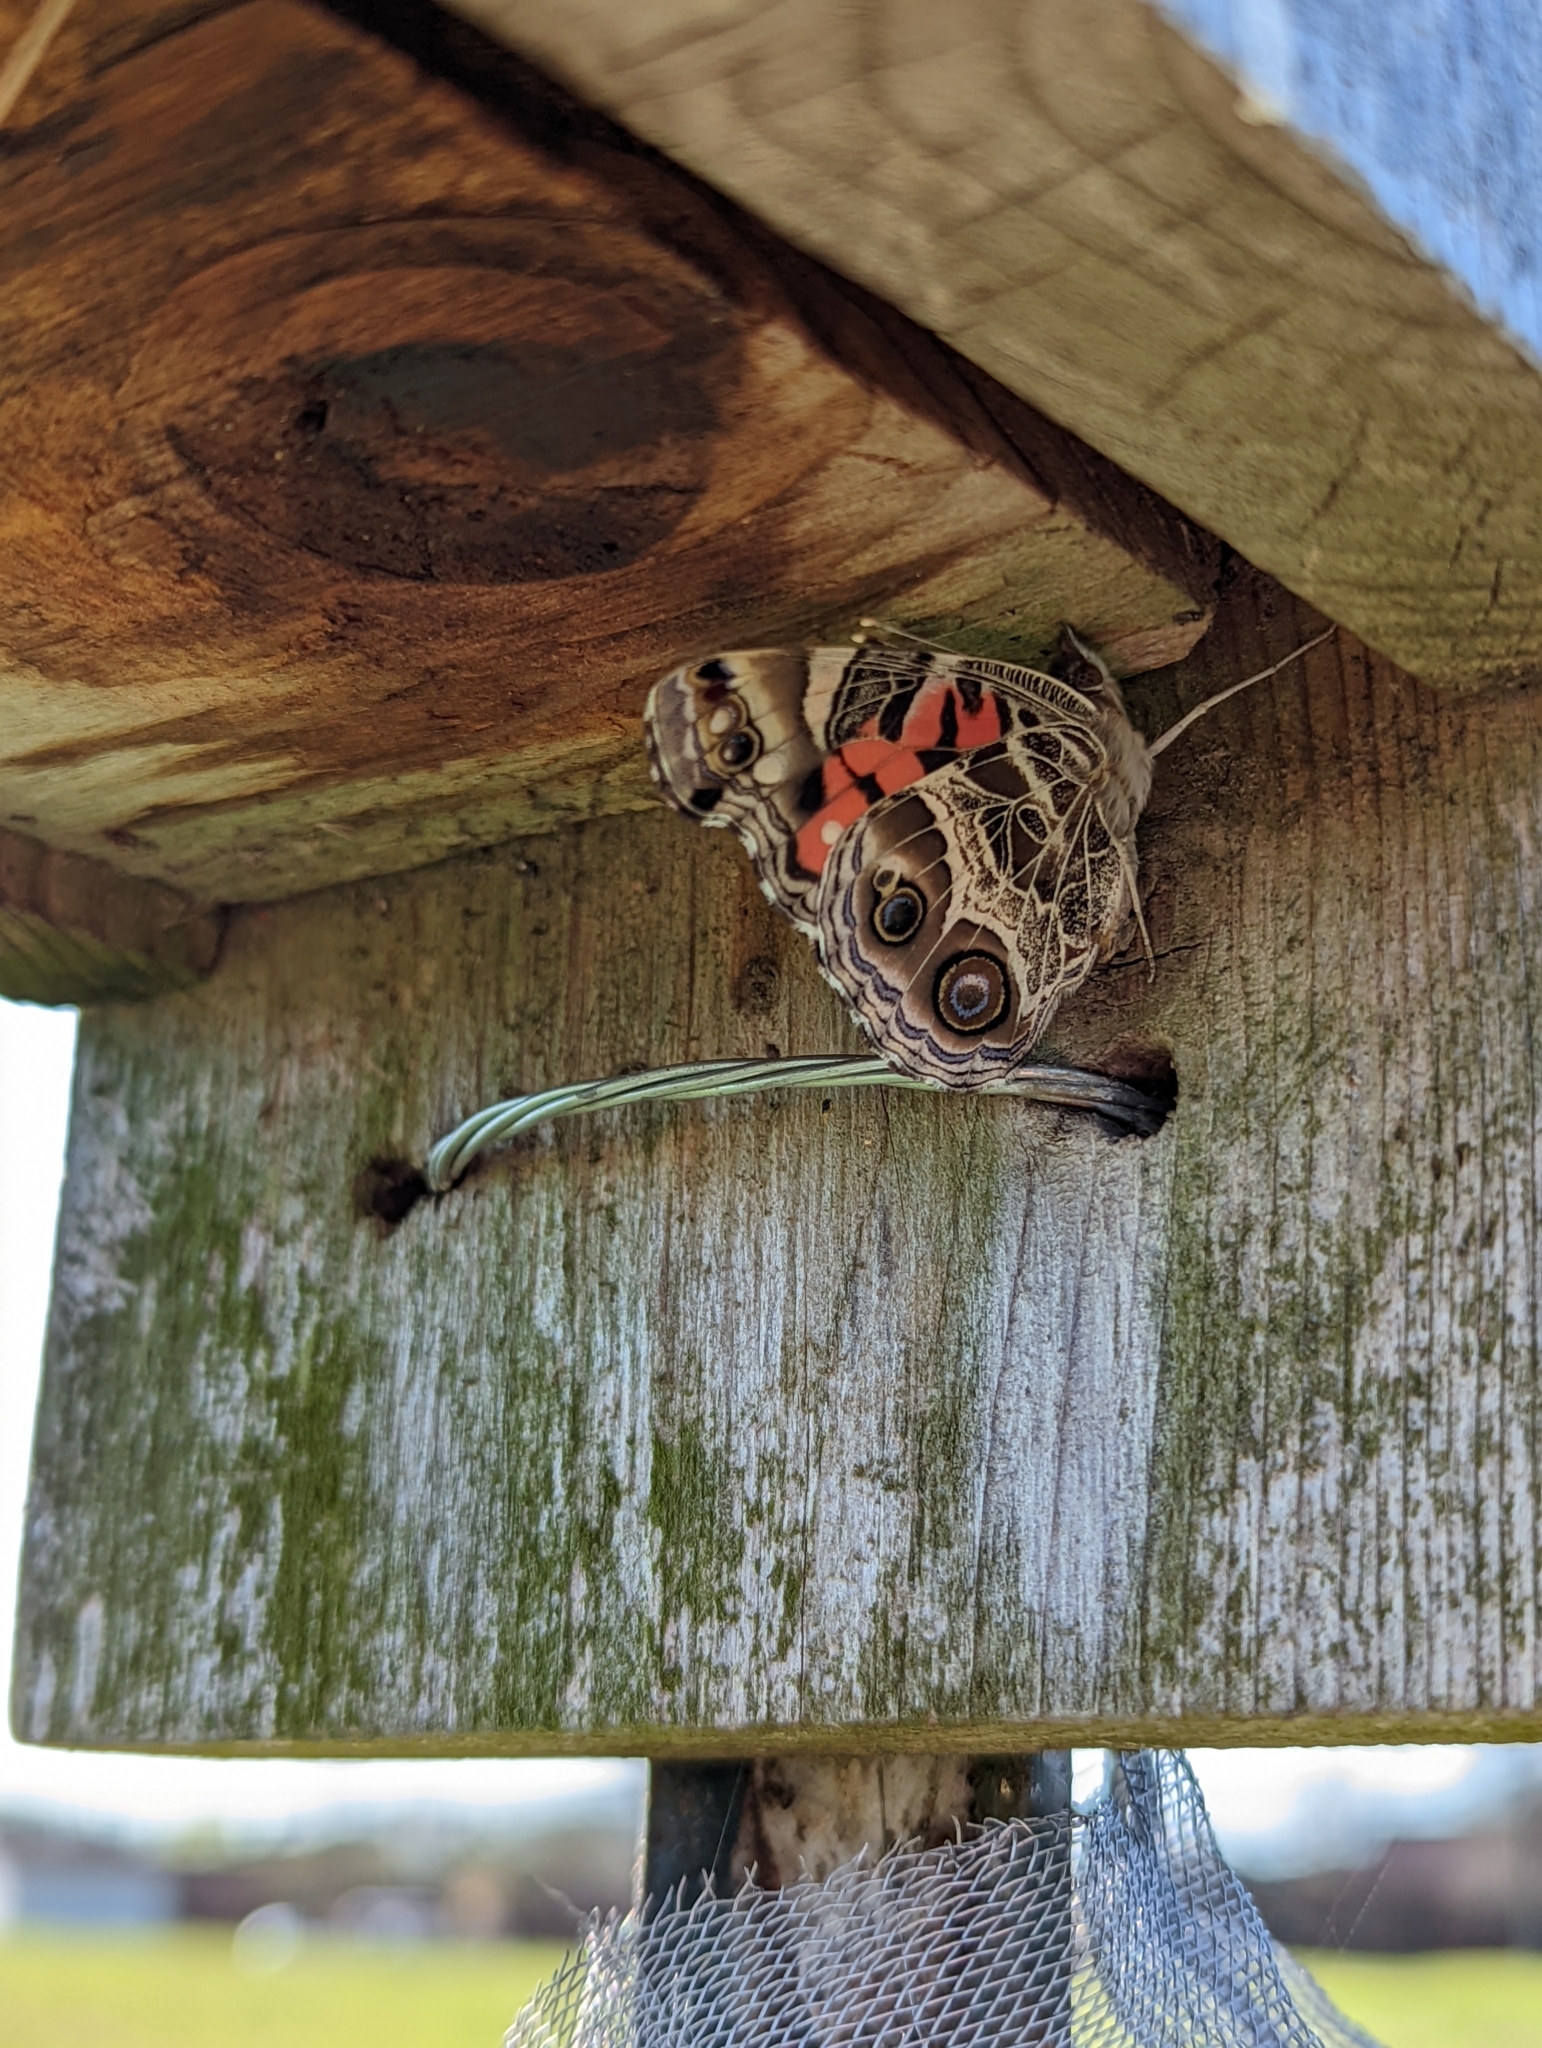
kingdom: Animalia
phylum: Arthropoda
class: Insecta
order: Lepidoptera
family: Nymphalidae
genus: Vanessa
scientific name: Vanessa virginiensis
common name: American lady
